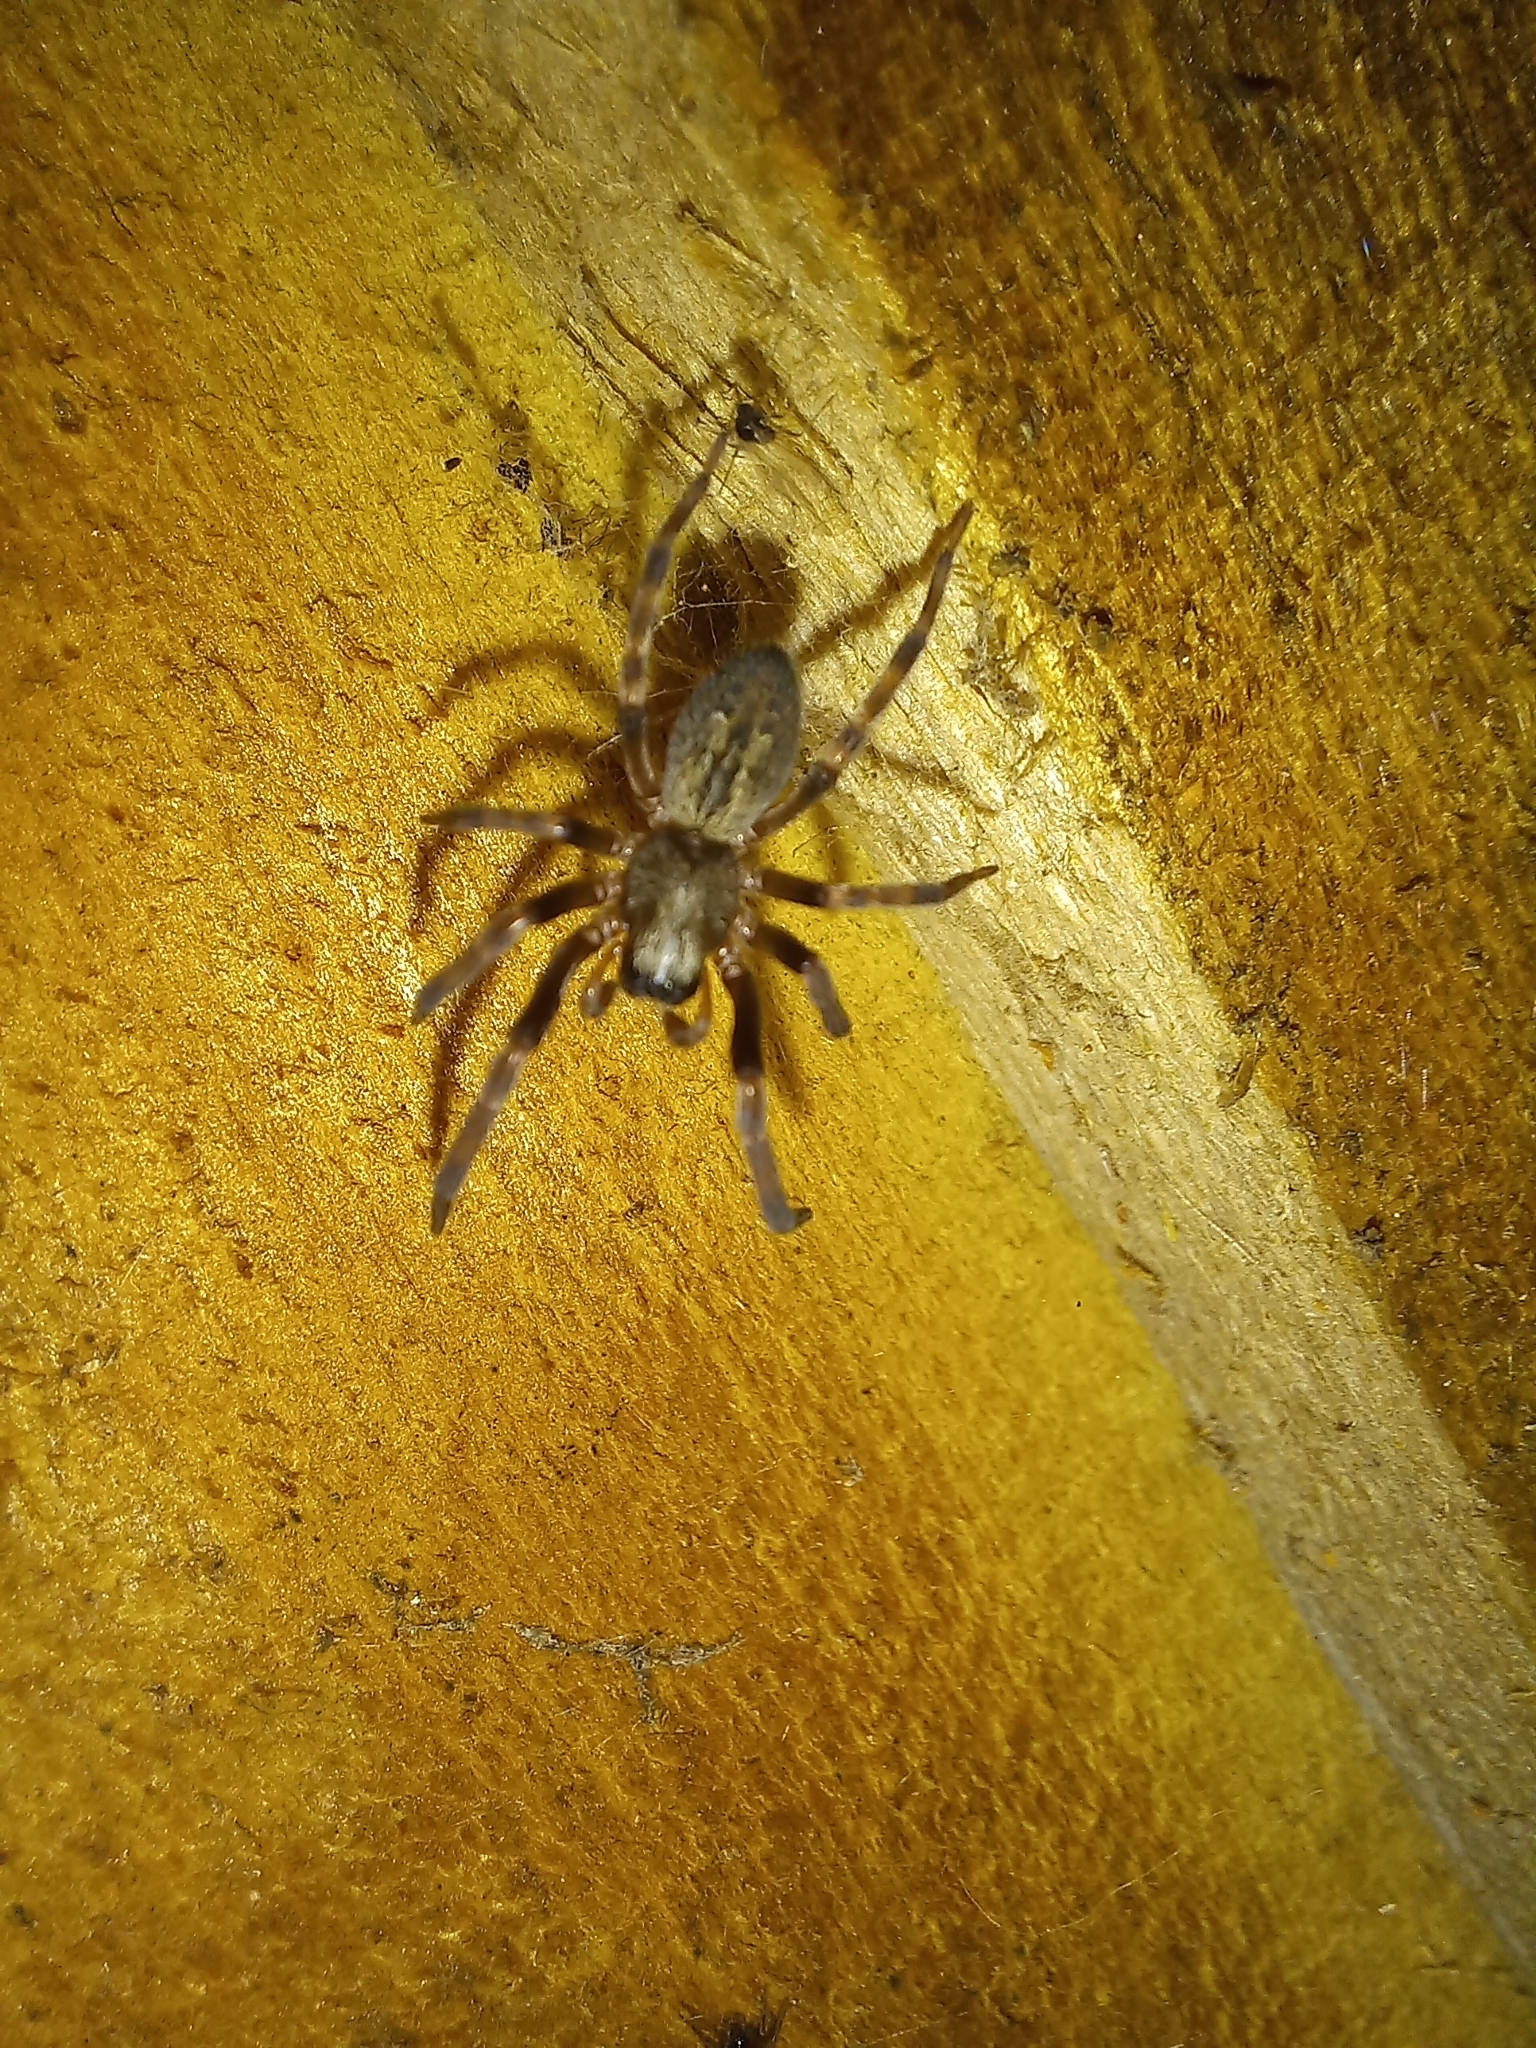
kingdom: Animalia
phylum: Arthropoda
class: Arachnida
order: Araneae
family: Desidae
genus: Badumna
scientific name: Badumna longinqua
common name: Gray house spider
